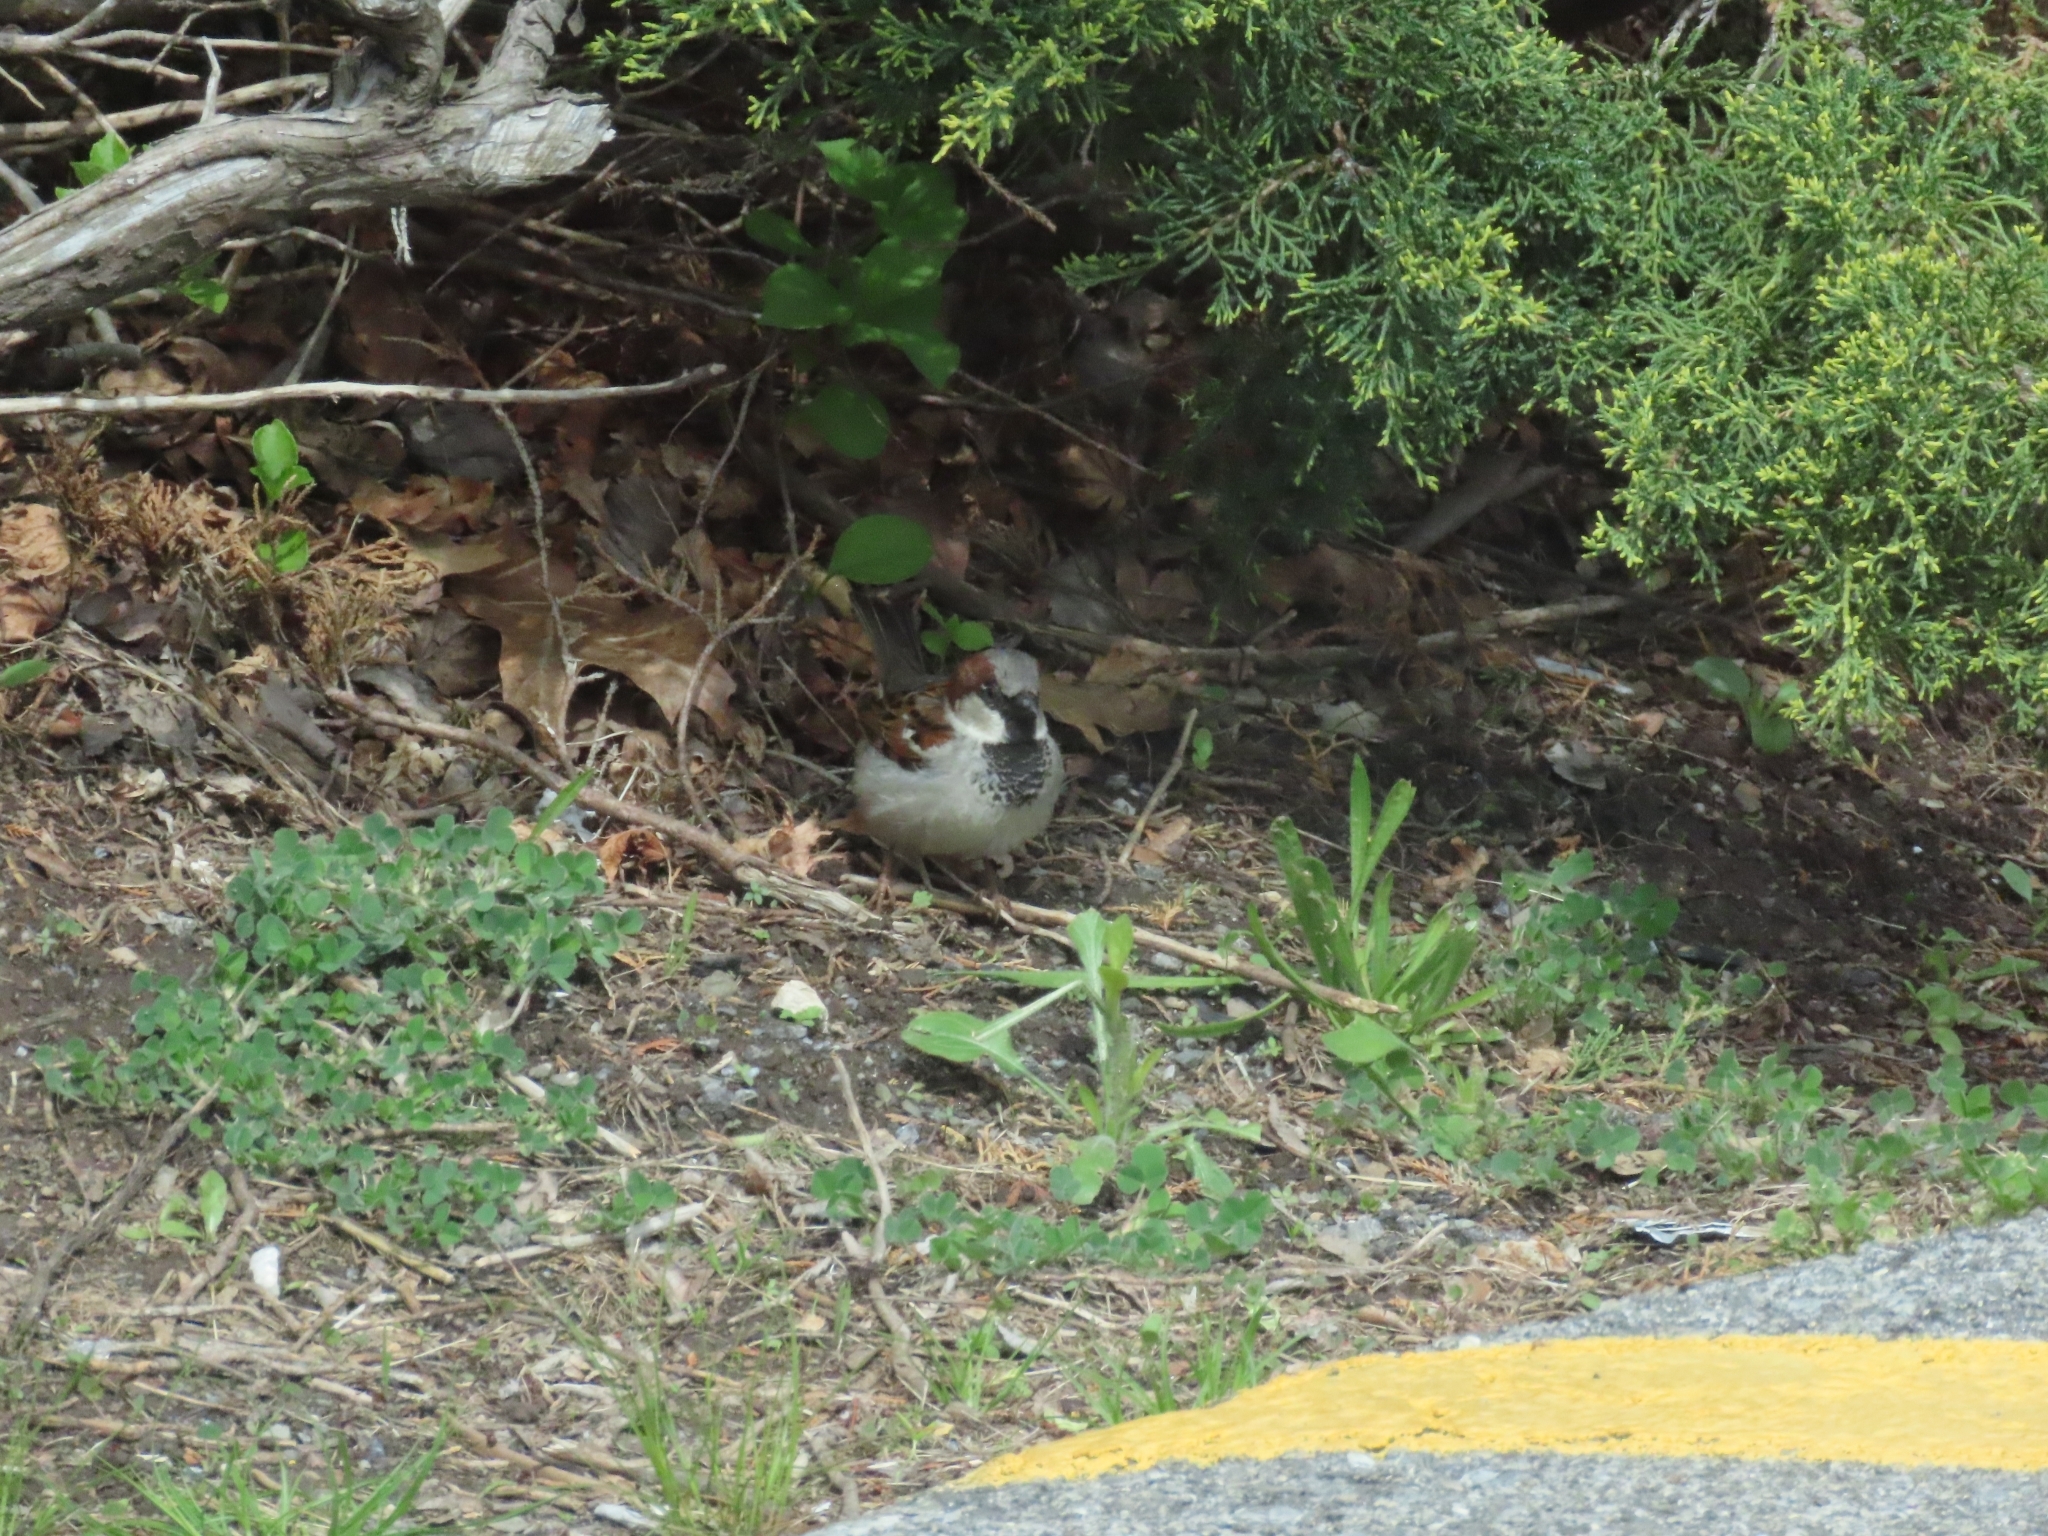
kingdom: Animalia
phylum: Chordata
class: Aves
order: Passeriformes
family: Passeridae
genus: Passer
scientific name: Passer domesticus
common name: House sparrow
